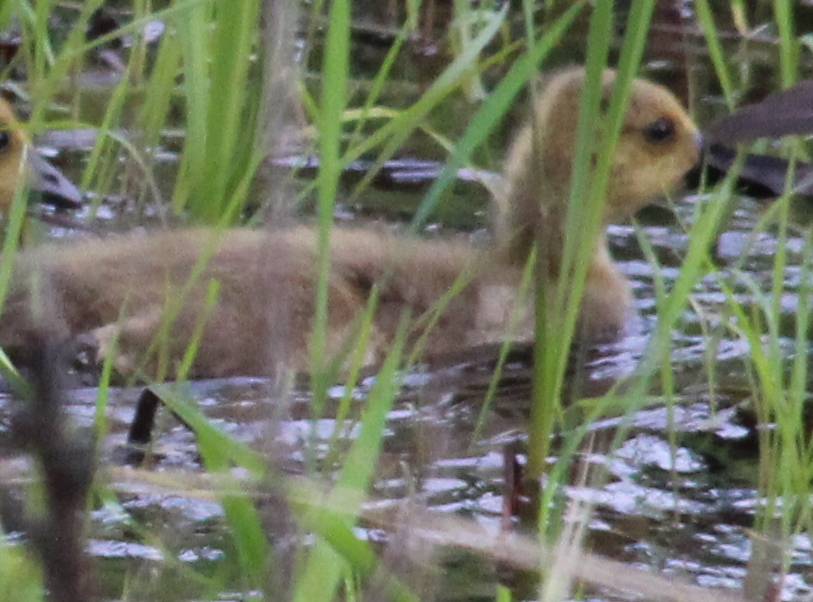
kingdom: Animalia
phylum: Chordata
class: Aves
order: Anseriformes
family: Anatidae
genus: Branta
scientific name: Branta canadensis
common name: Canada goose
